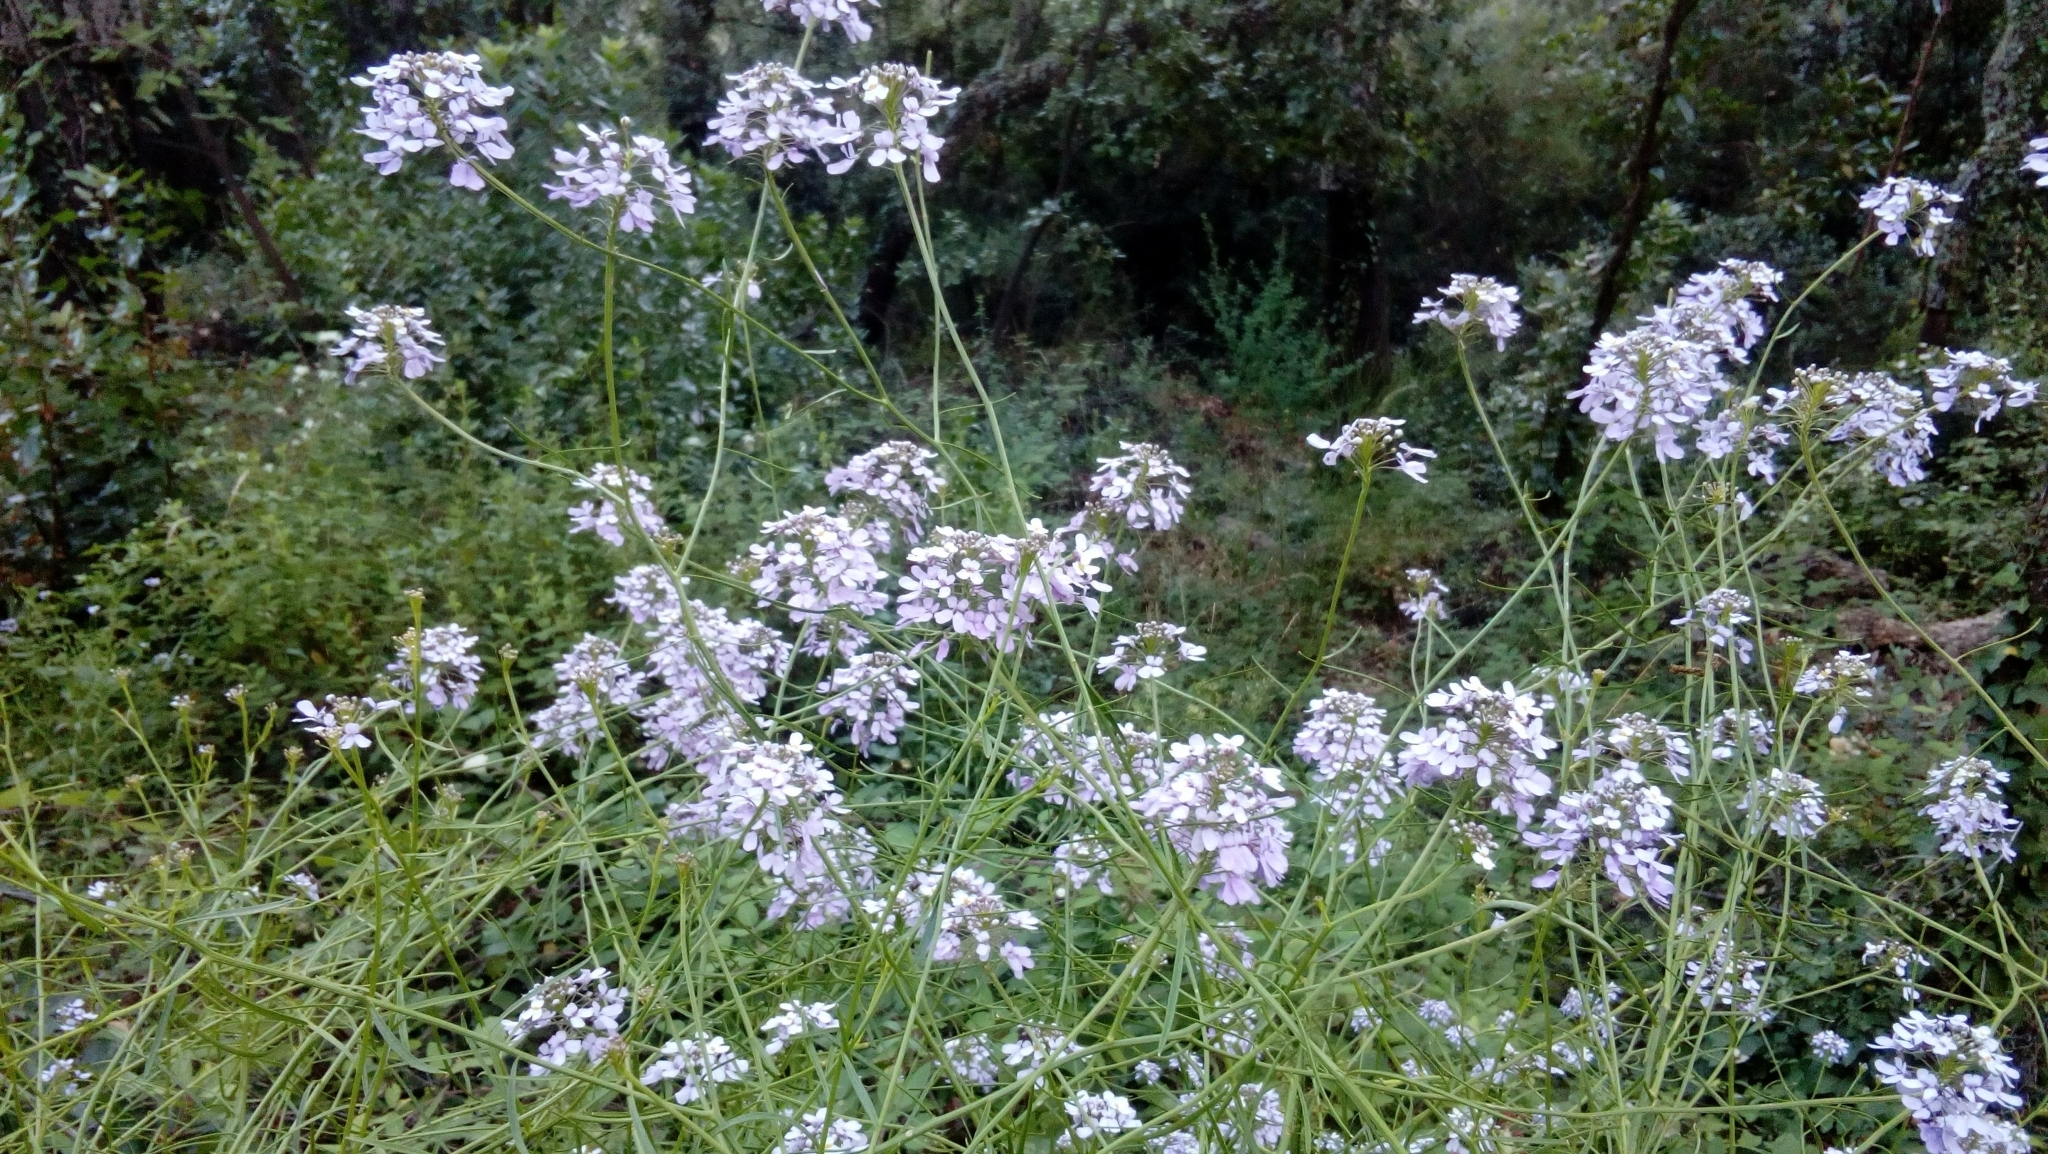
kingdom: Plantae
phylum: Tracheophyta
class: Magnoliopsida
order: Brassicales
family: Brassicaceae
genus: Iberis
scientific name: Iberis linifolia
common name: Candytuft
